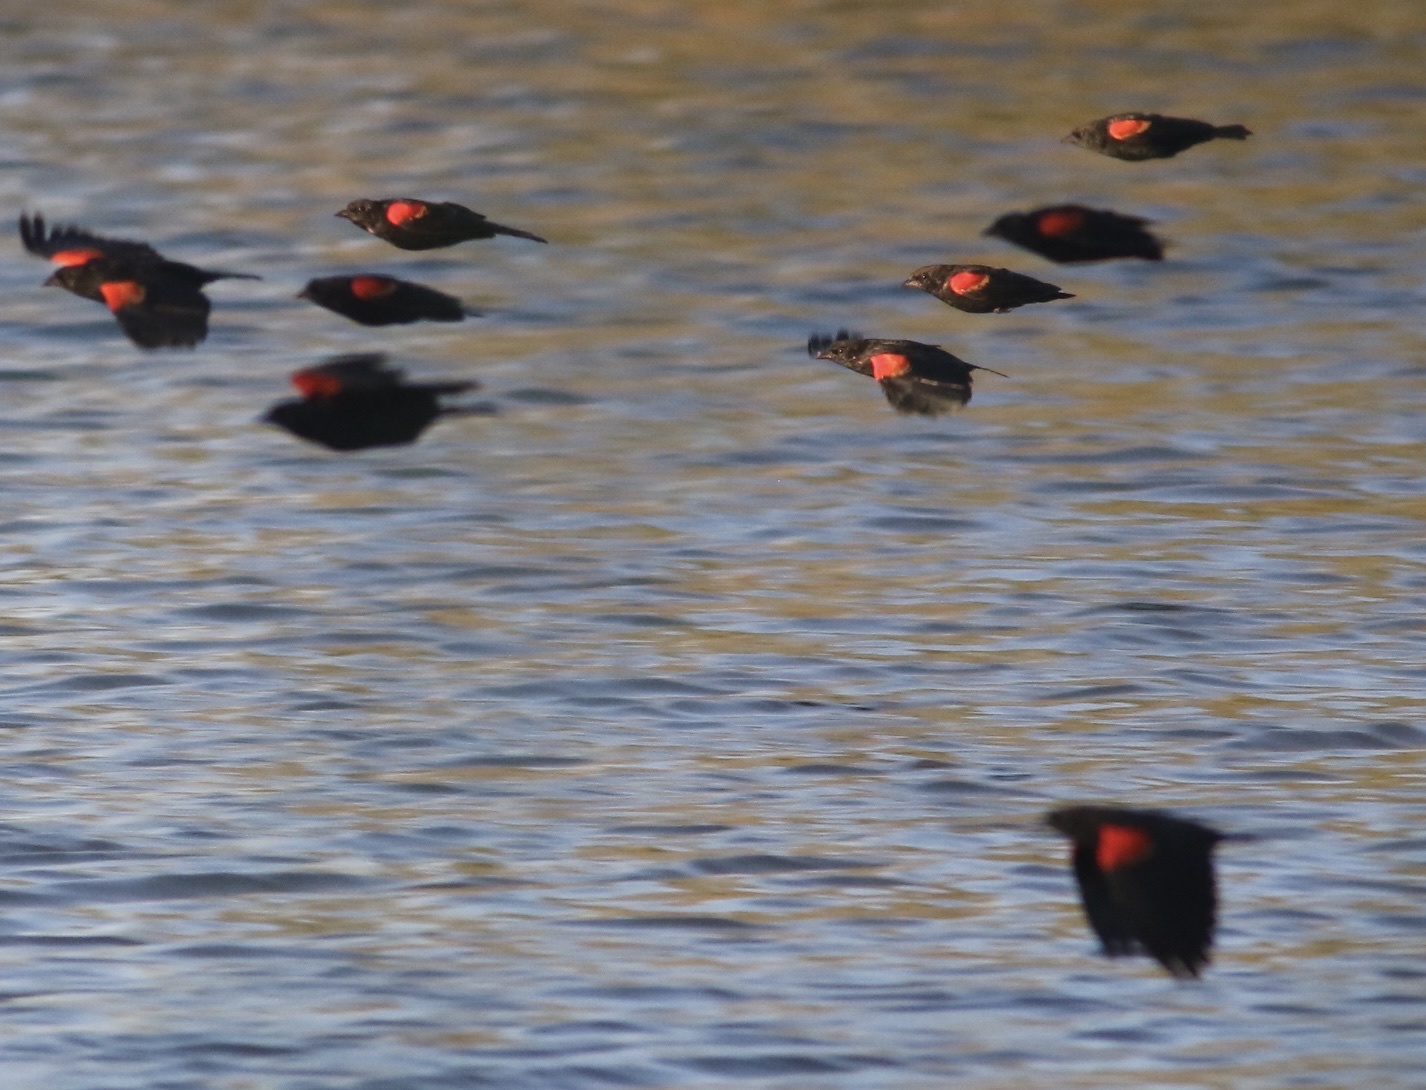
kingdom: Animalia
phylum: Chordata
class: Aves
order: Passeriformes
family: Icteridae
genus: Agelaius
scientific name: Agelaius phoeniceus
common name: Red-winged blackbird
